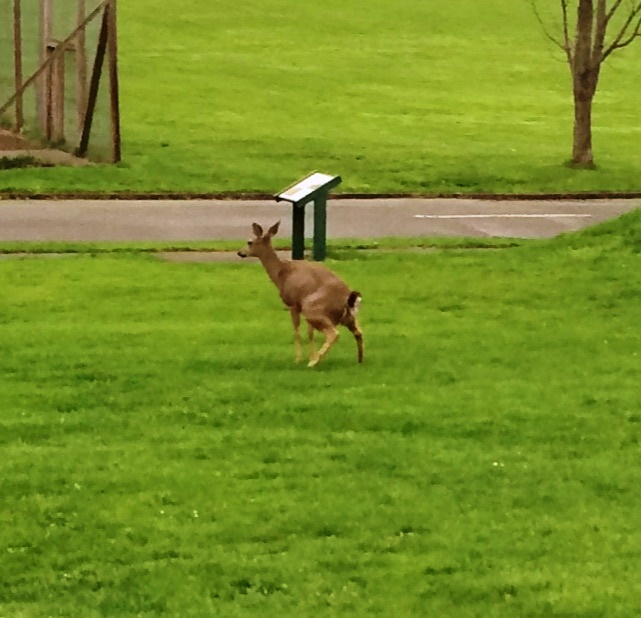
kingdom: Animalia
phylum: Chordata
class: Mammalia
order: Artiodactyla
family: Cervidae
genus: Odocoileus
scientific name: Odocoileus hemionus
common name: Mule deer
